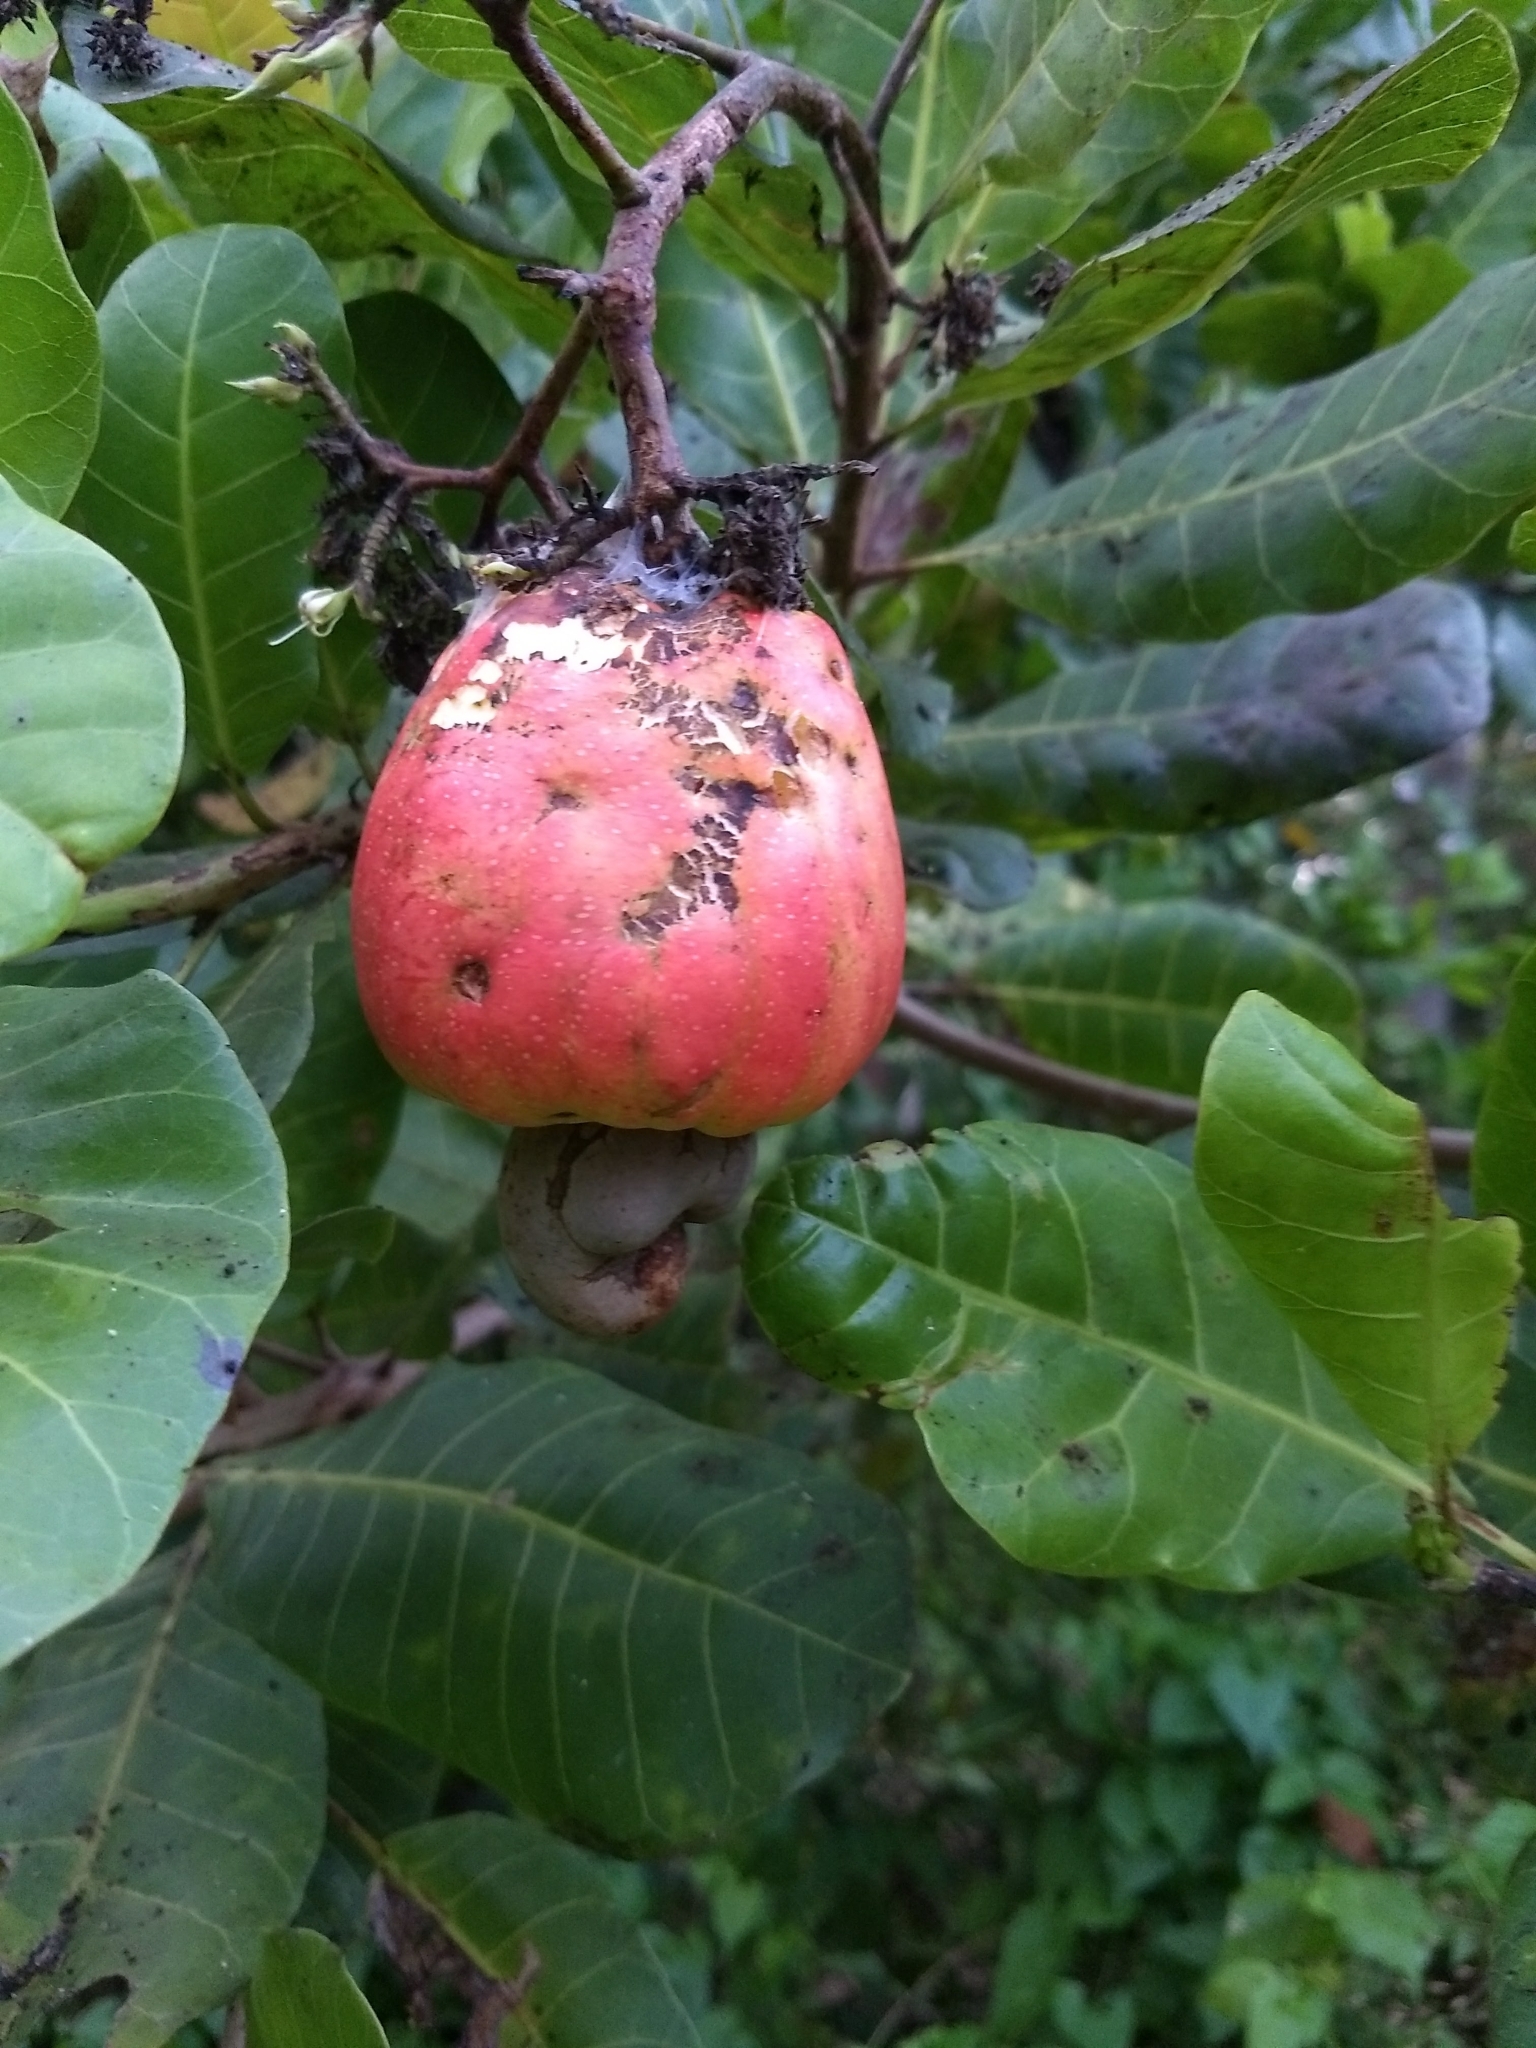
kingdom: Plantae
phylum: Tracheophyta
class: Magnoliopsida
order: Sapindales
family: Anacardiaceae
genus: Anacardium
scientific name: Anacardium occidentale
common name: Cashew
